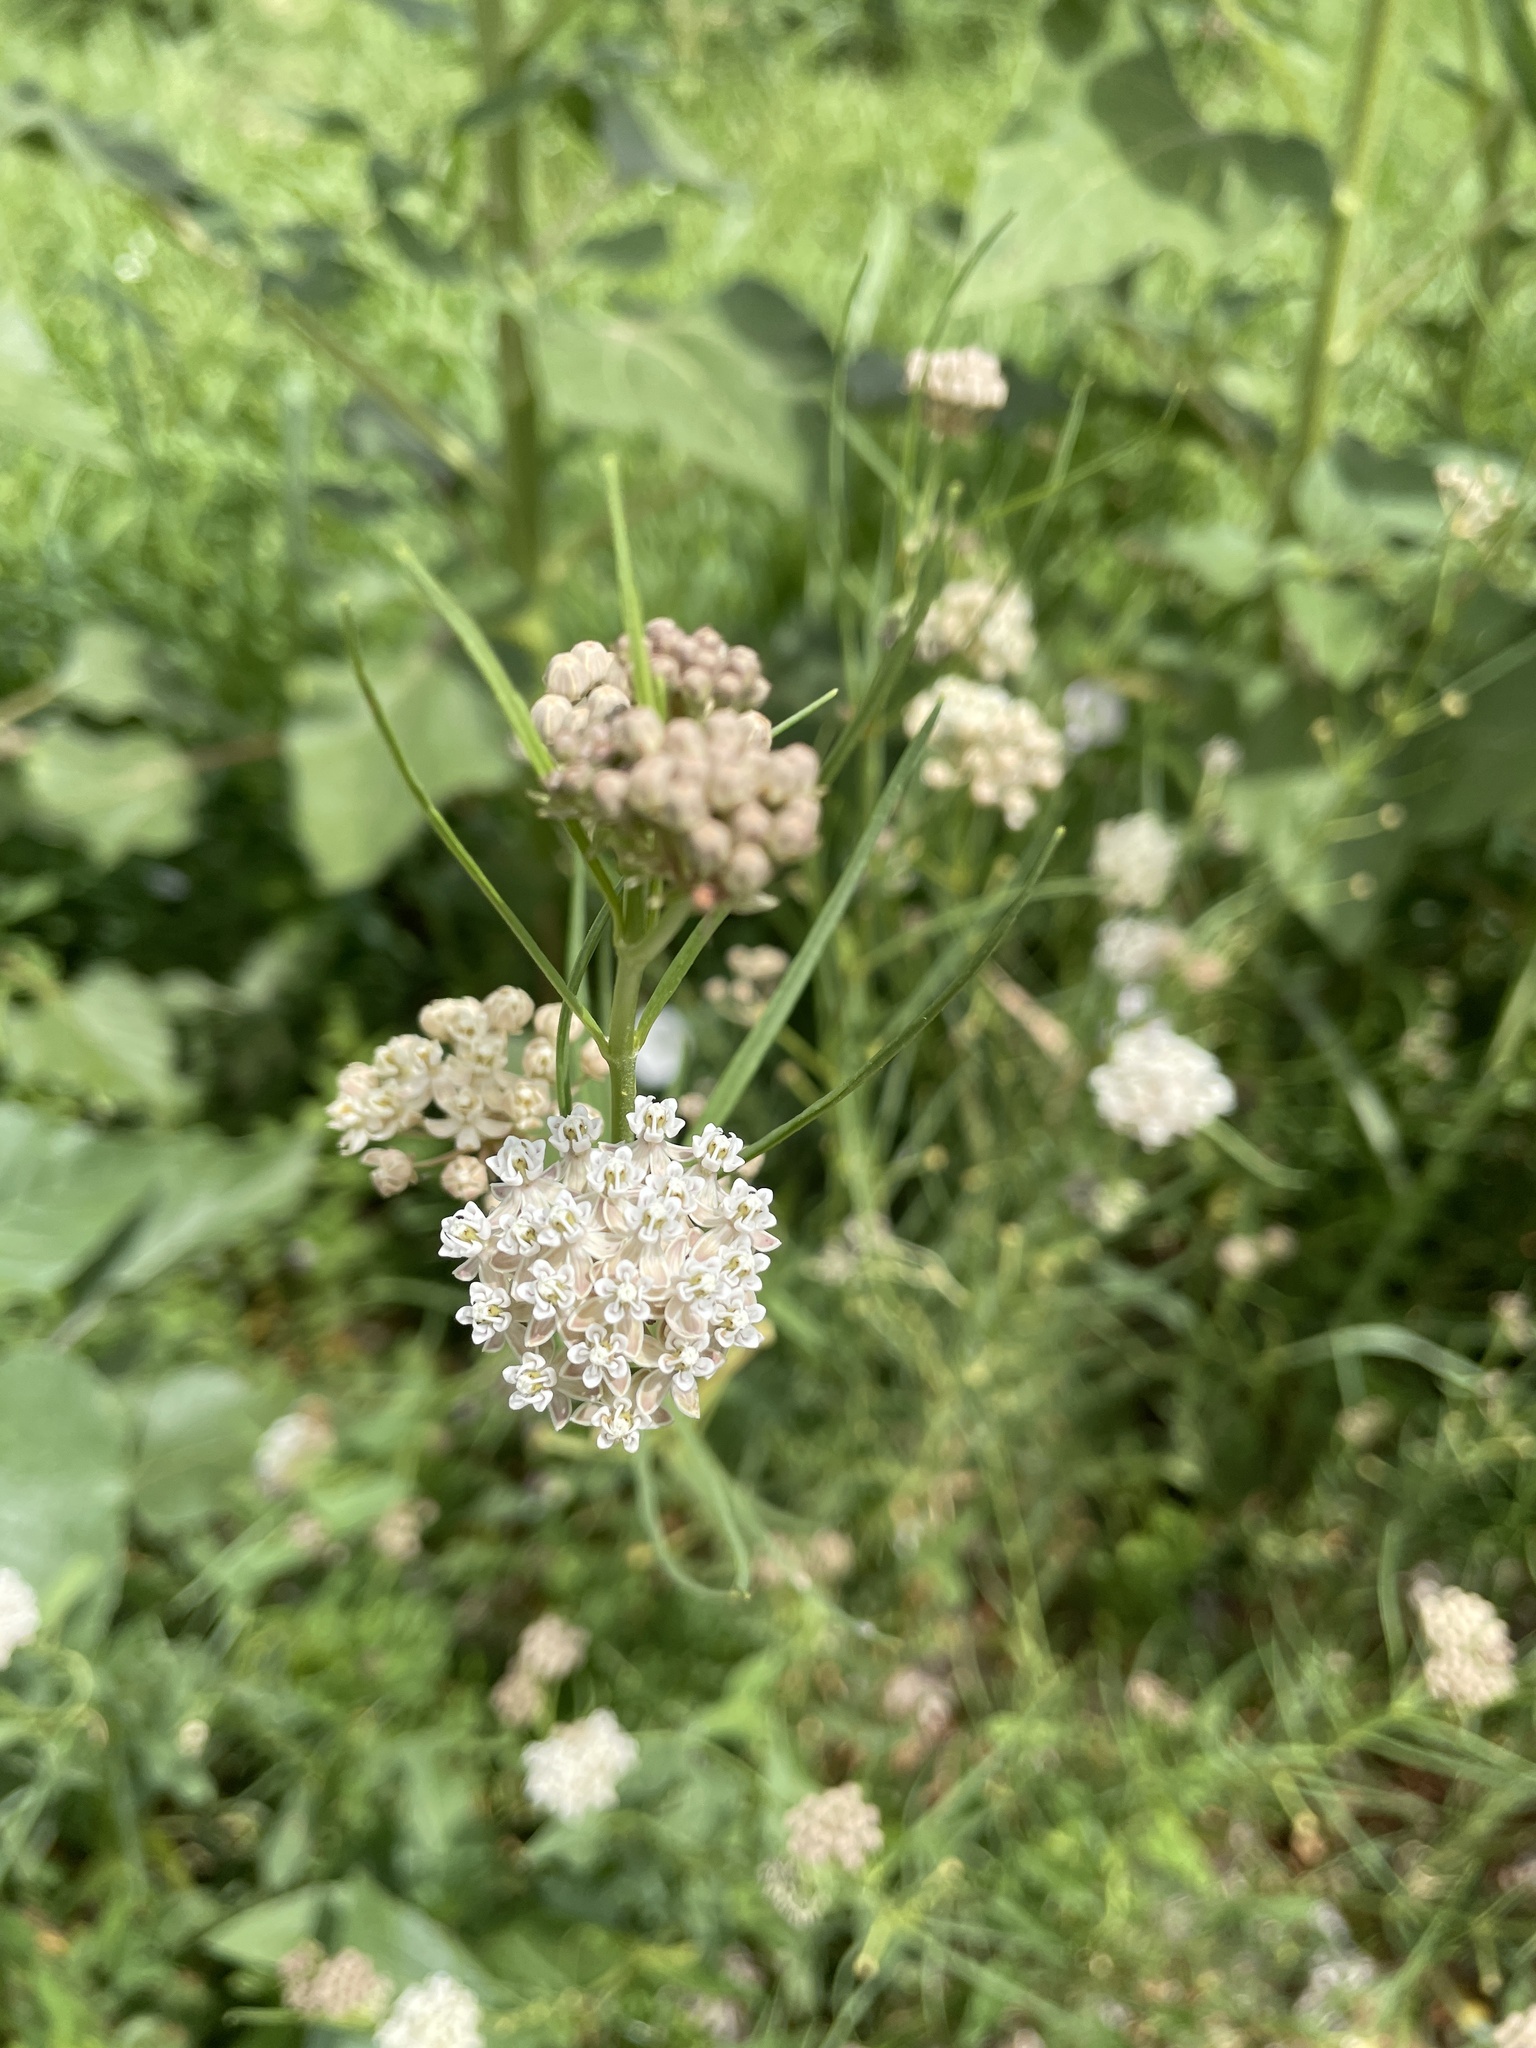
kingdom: Plantae
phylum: Tracheophyta
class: Magnoliopsida
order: Gentianales
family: Apocynaceae
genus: Asclepias
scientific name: Asclepias subverticillata
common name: Horsetail milkweed
